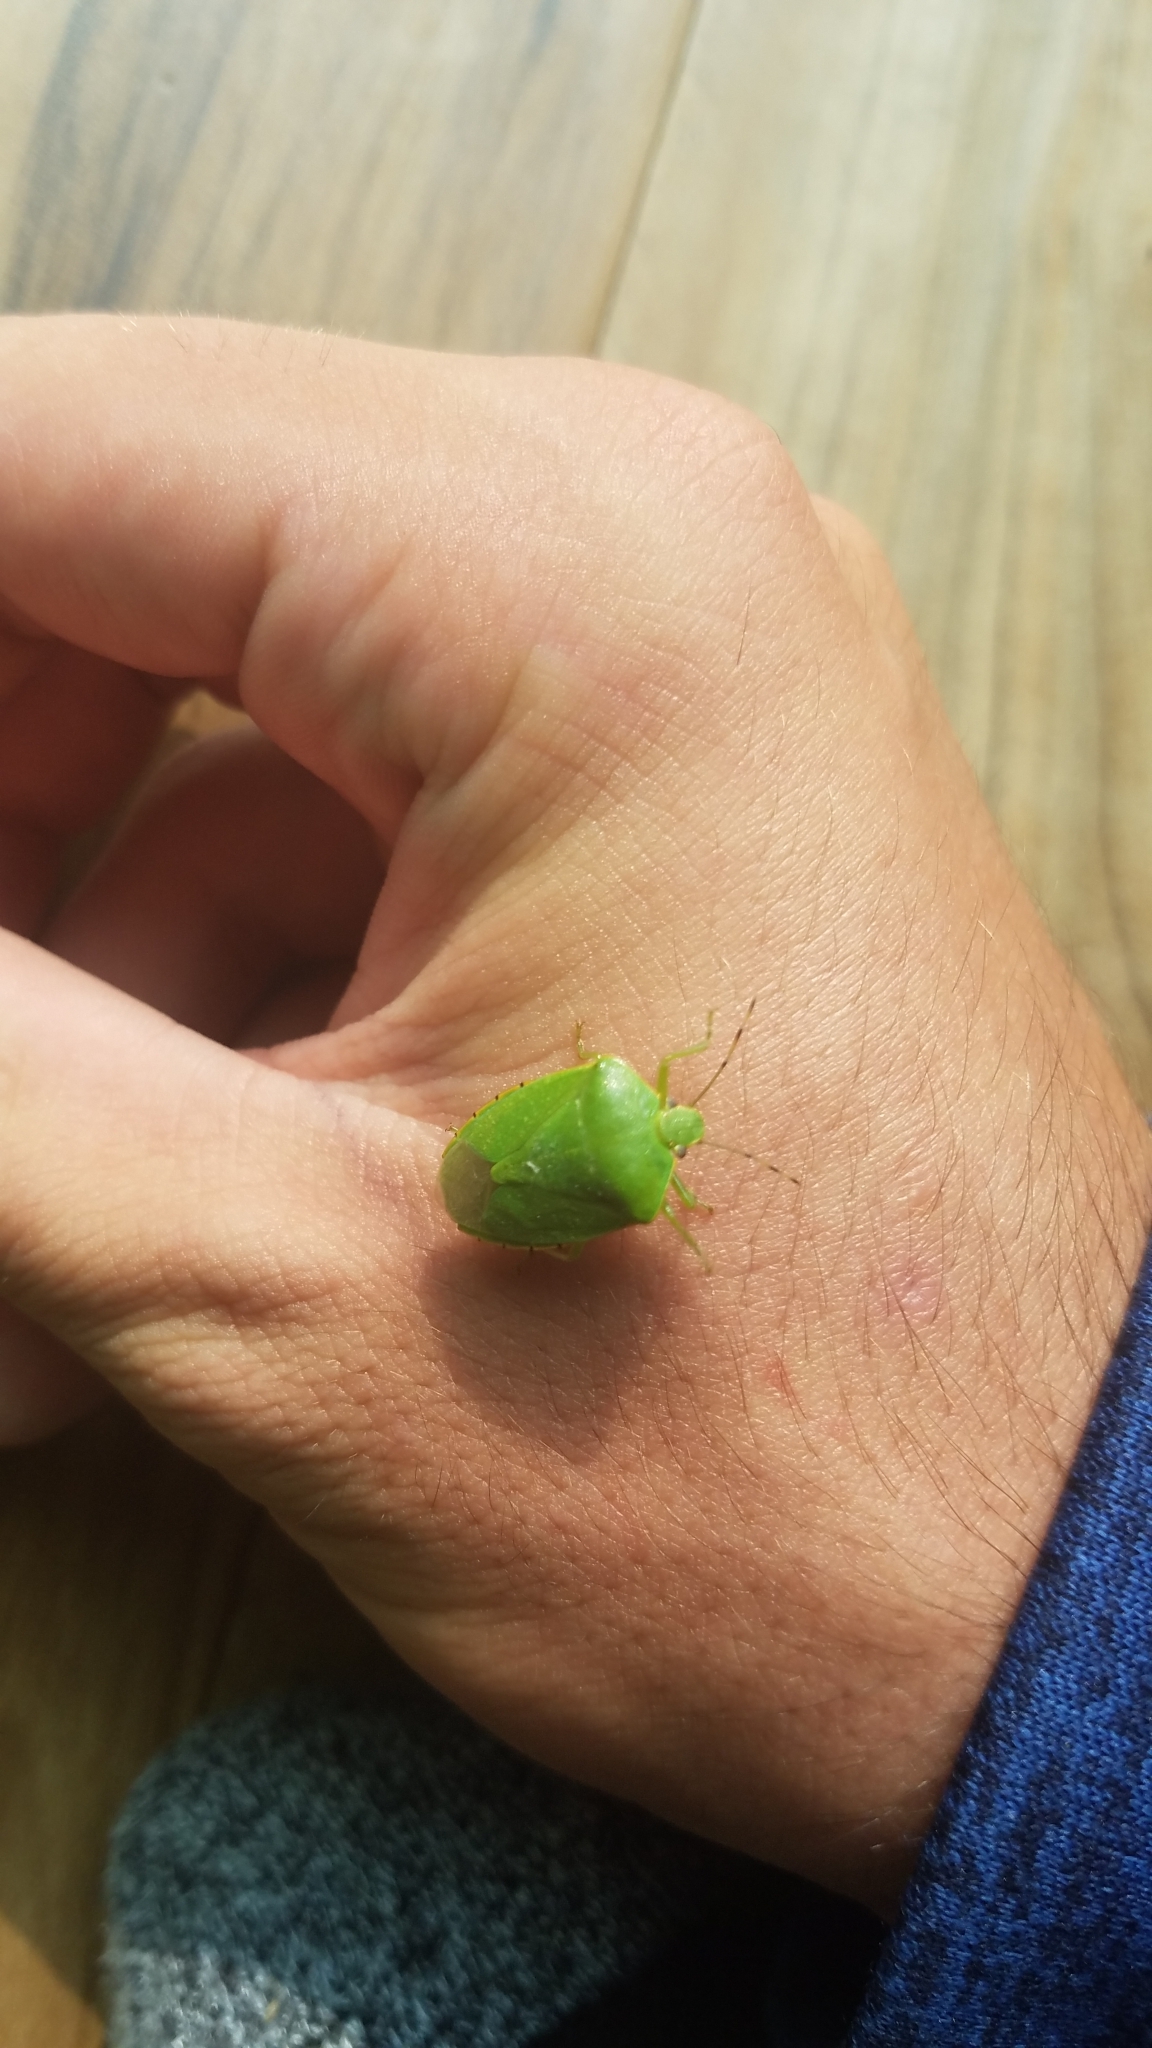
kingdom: Animalia
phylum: Arthropoda
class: Insecta
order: Hemiptera
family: Pentatomidae
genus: Chinavia
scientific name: Chinavia hilaris
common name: Green stink bug
